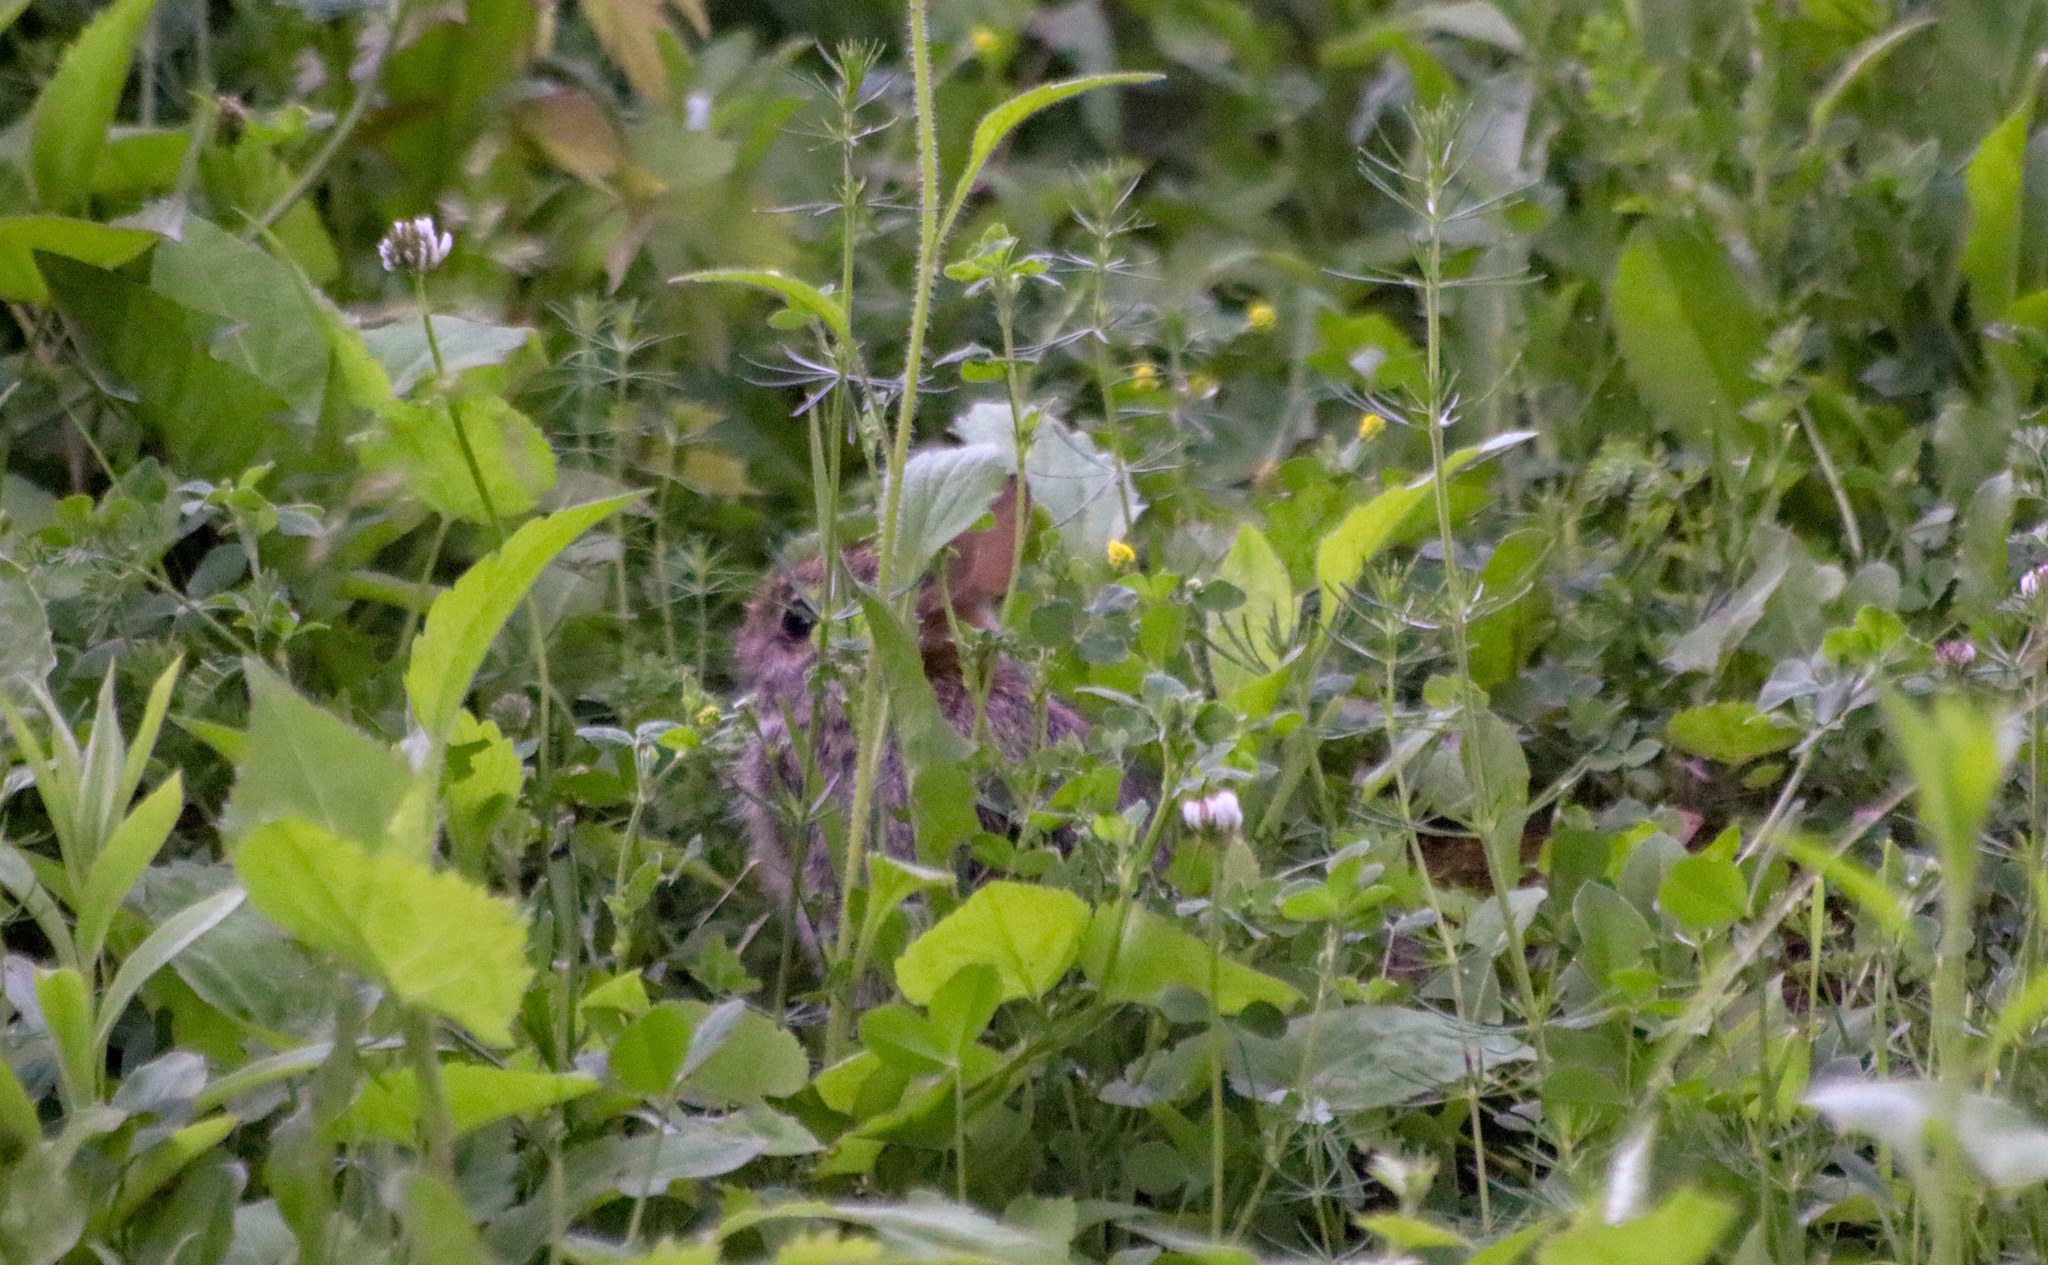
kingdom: Animalia
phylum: Chordata
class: Mammalia
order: Lagomorpha
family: Leporidae
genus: Sylvilagus
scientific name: Sylvilagus floridanus
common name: Eastern cottontail
